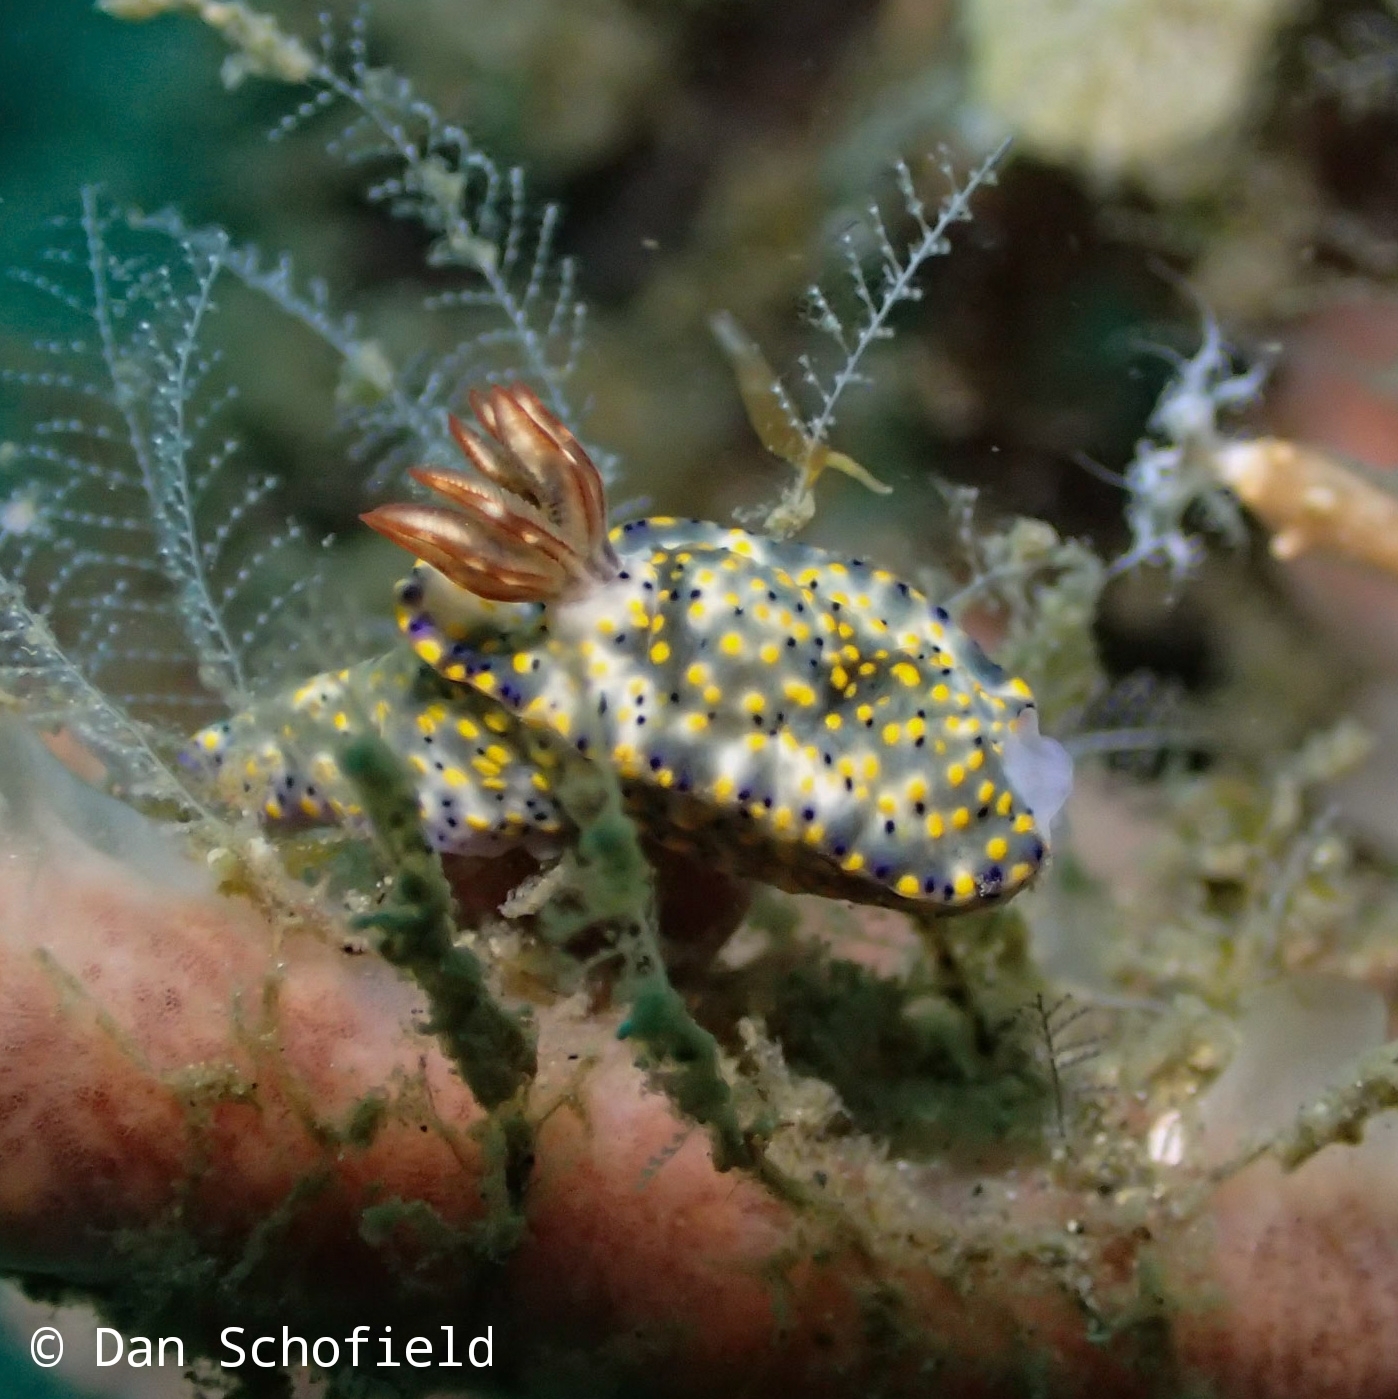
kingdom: Animalia
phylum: Mollusca
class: Gastropoda
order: Nudibranchia
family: Chromodorididae
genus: Hypselodoris
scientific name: Hypselodoris roo
